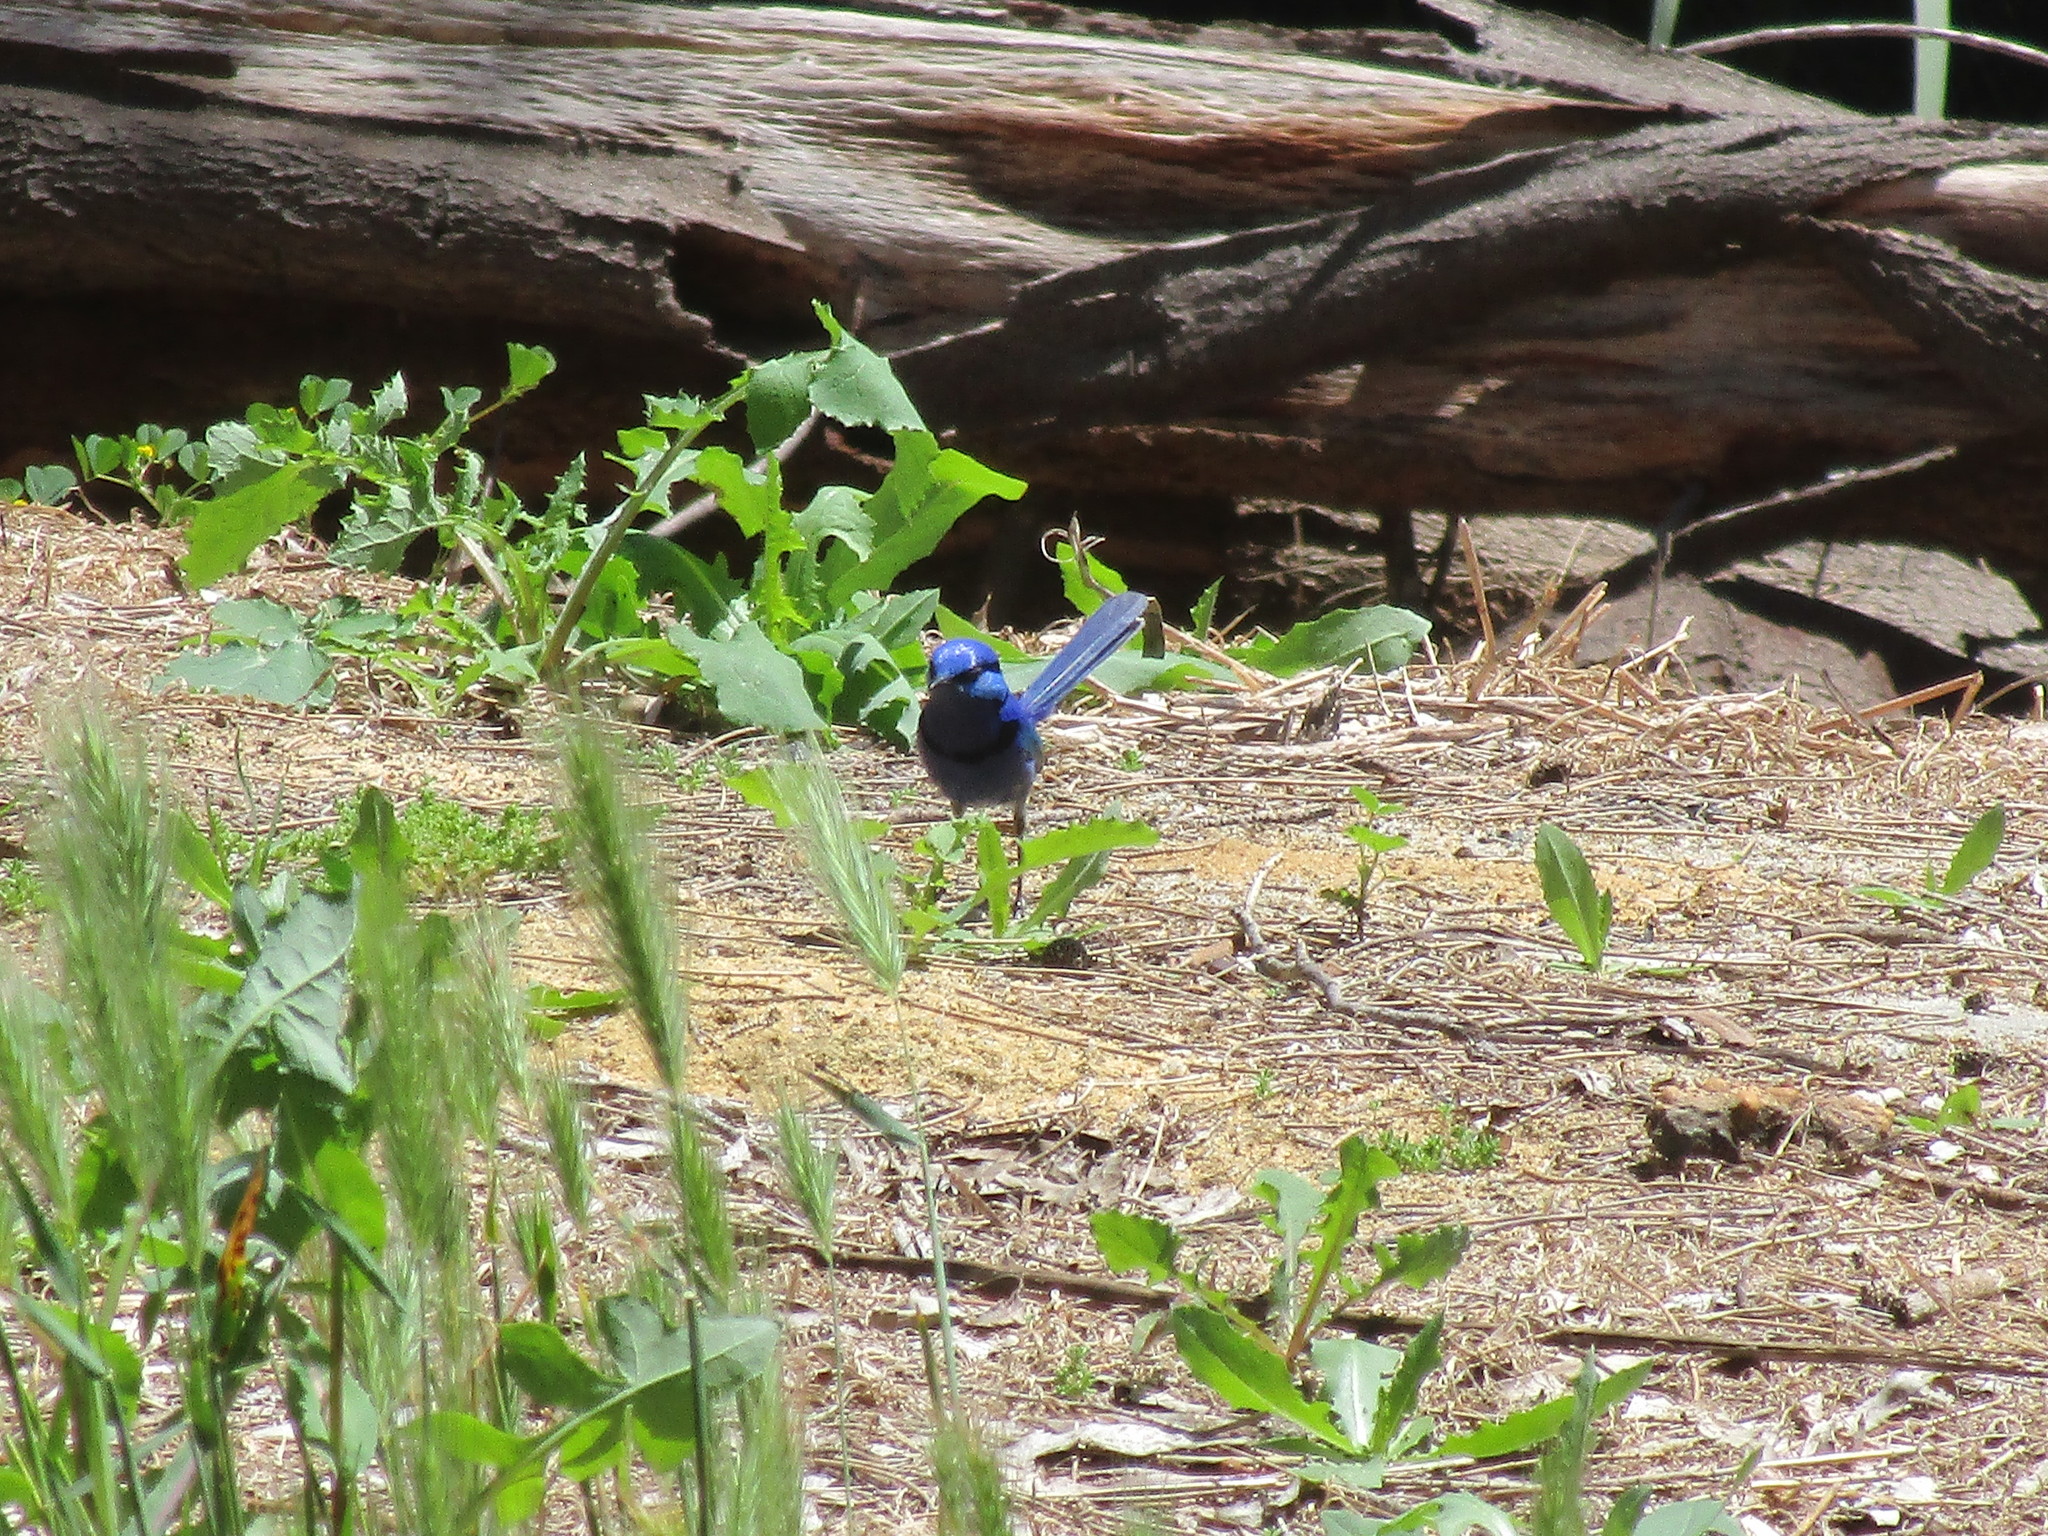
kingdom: Animalia
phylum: Chordata
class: Aves
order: Passeriformes
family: Maluridae
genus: Malurus
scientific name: Malurus splendens
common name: Splendid fairywren
